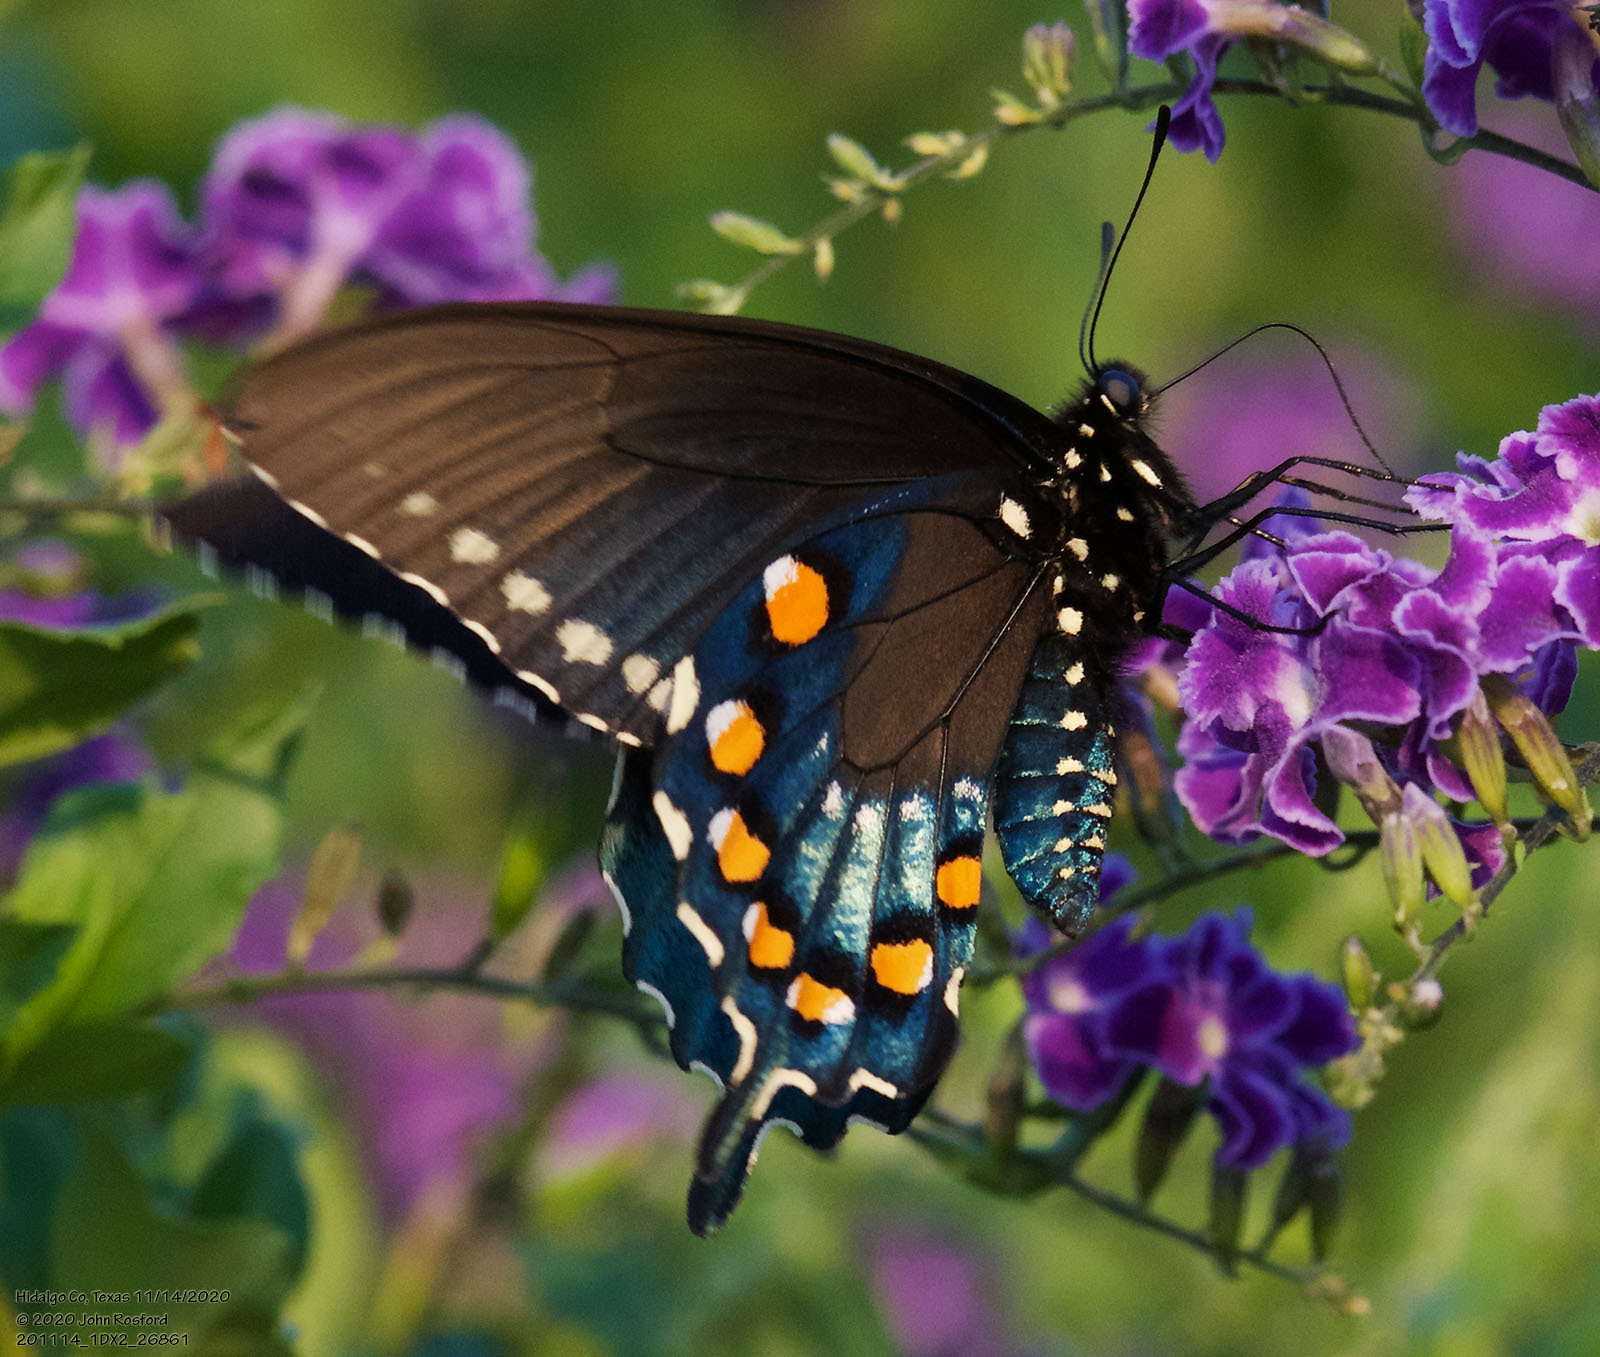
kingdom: Animalia
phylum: Arthropoda
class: Insecta
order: Lepidoptera
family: Papilionidae
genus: Battus
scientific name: Battus philenor
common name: Pipevine swallowtail
